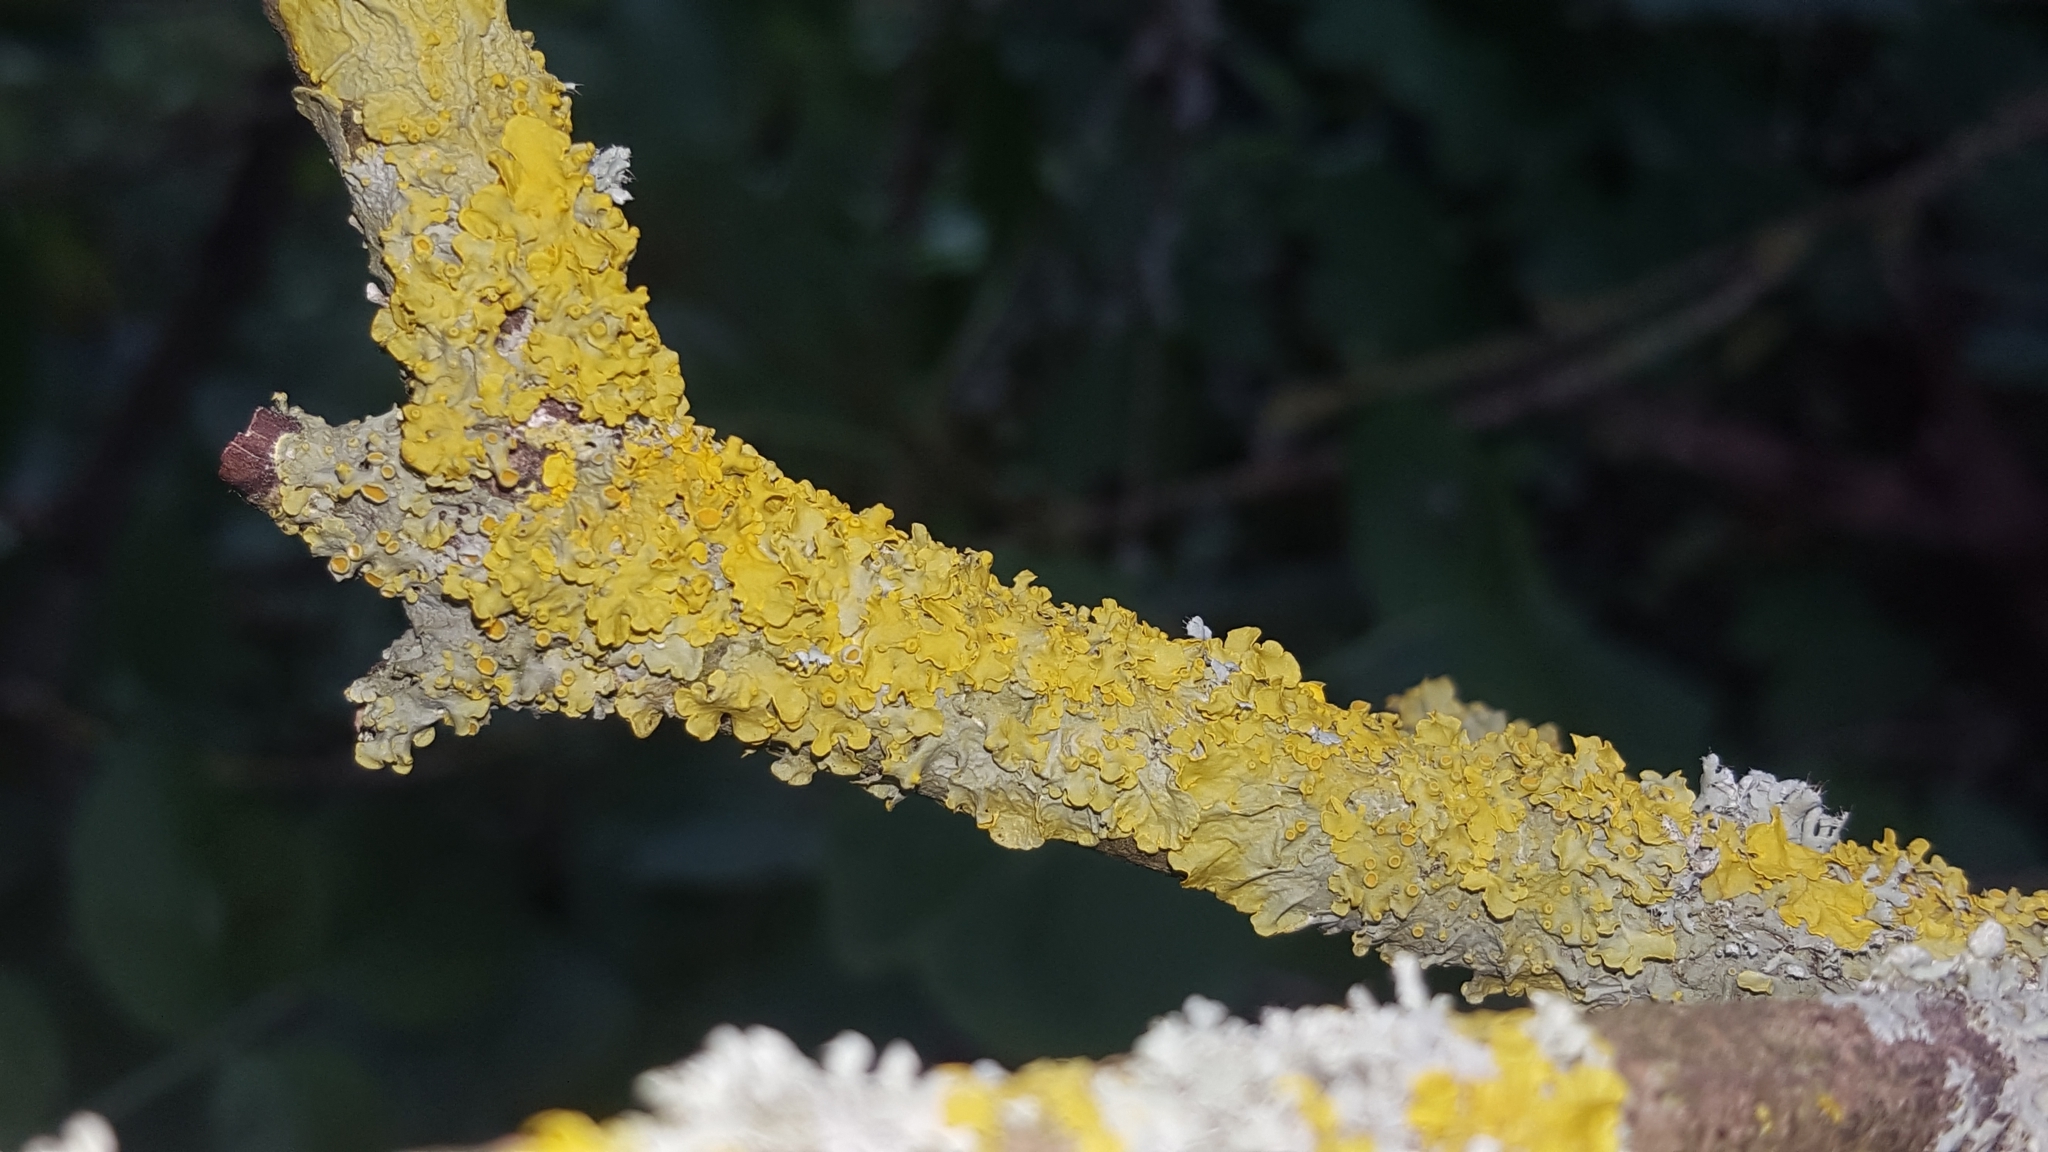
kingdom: Fungi
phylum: Ascomycota
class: Lecanoromycetes
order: Teloschistales
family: Teloschistaceae
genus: Xanthoria
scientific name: Xanthoria parietina
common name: Common orange lichen
